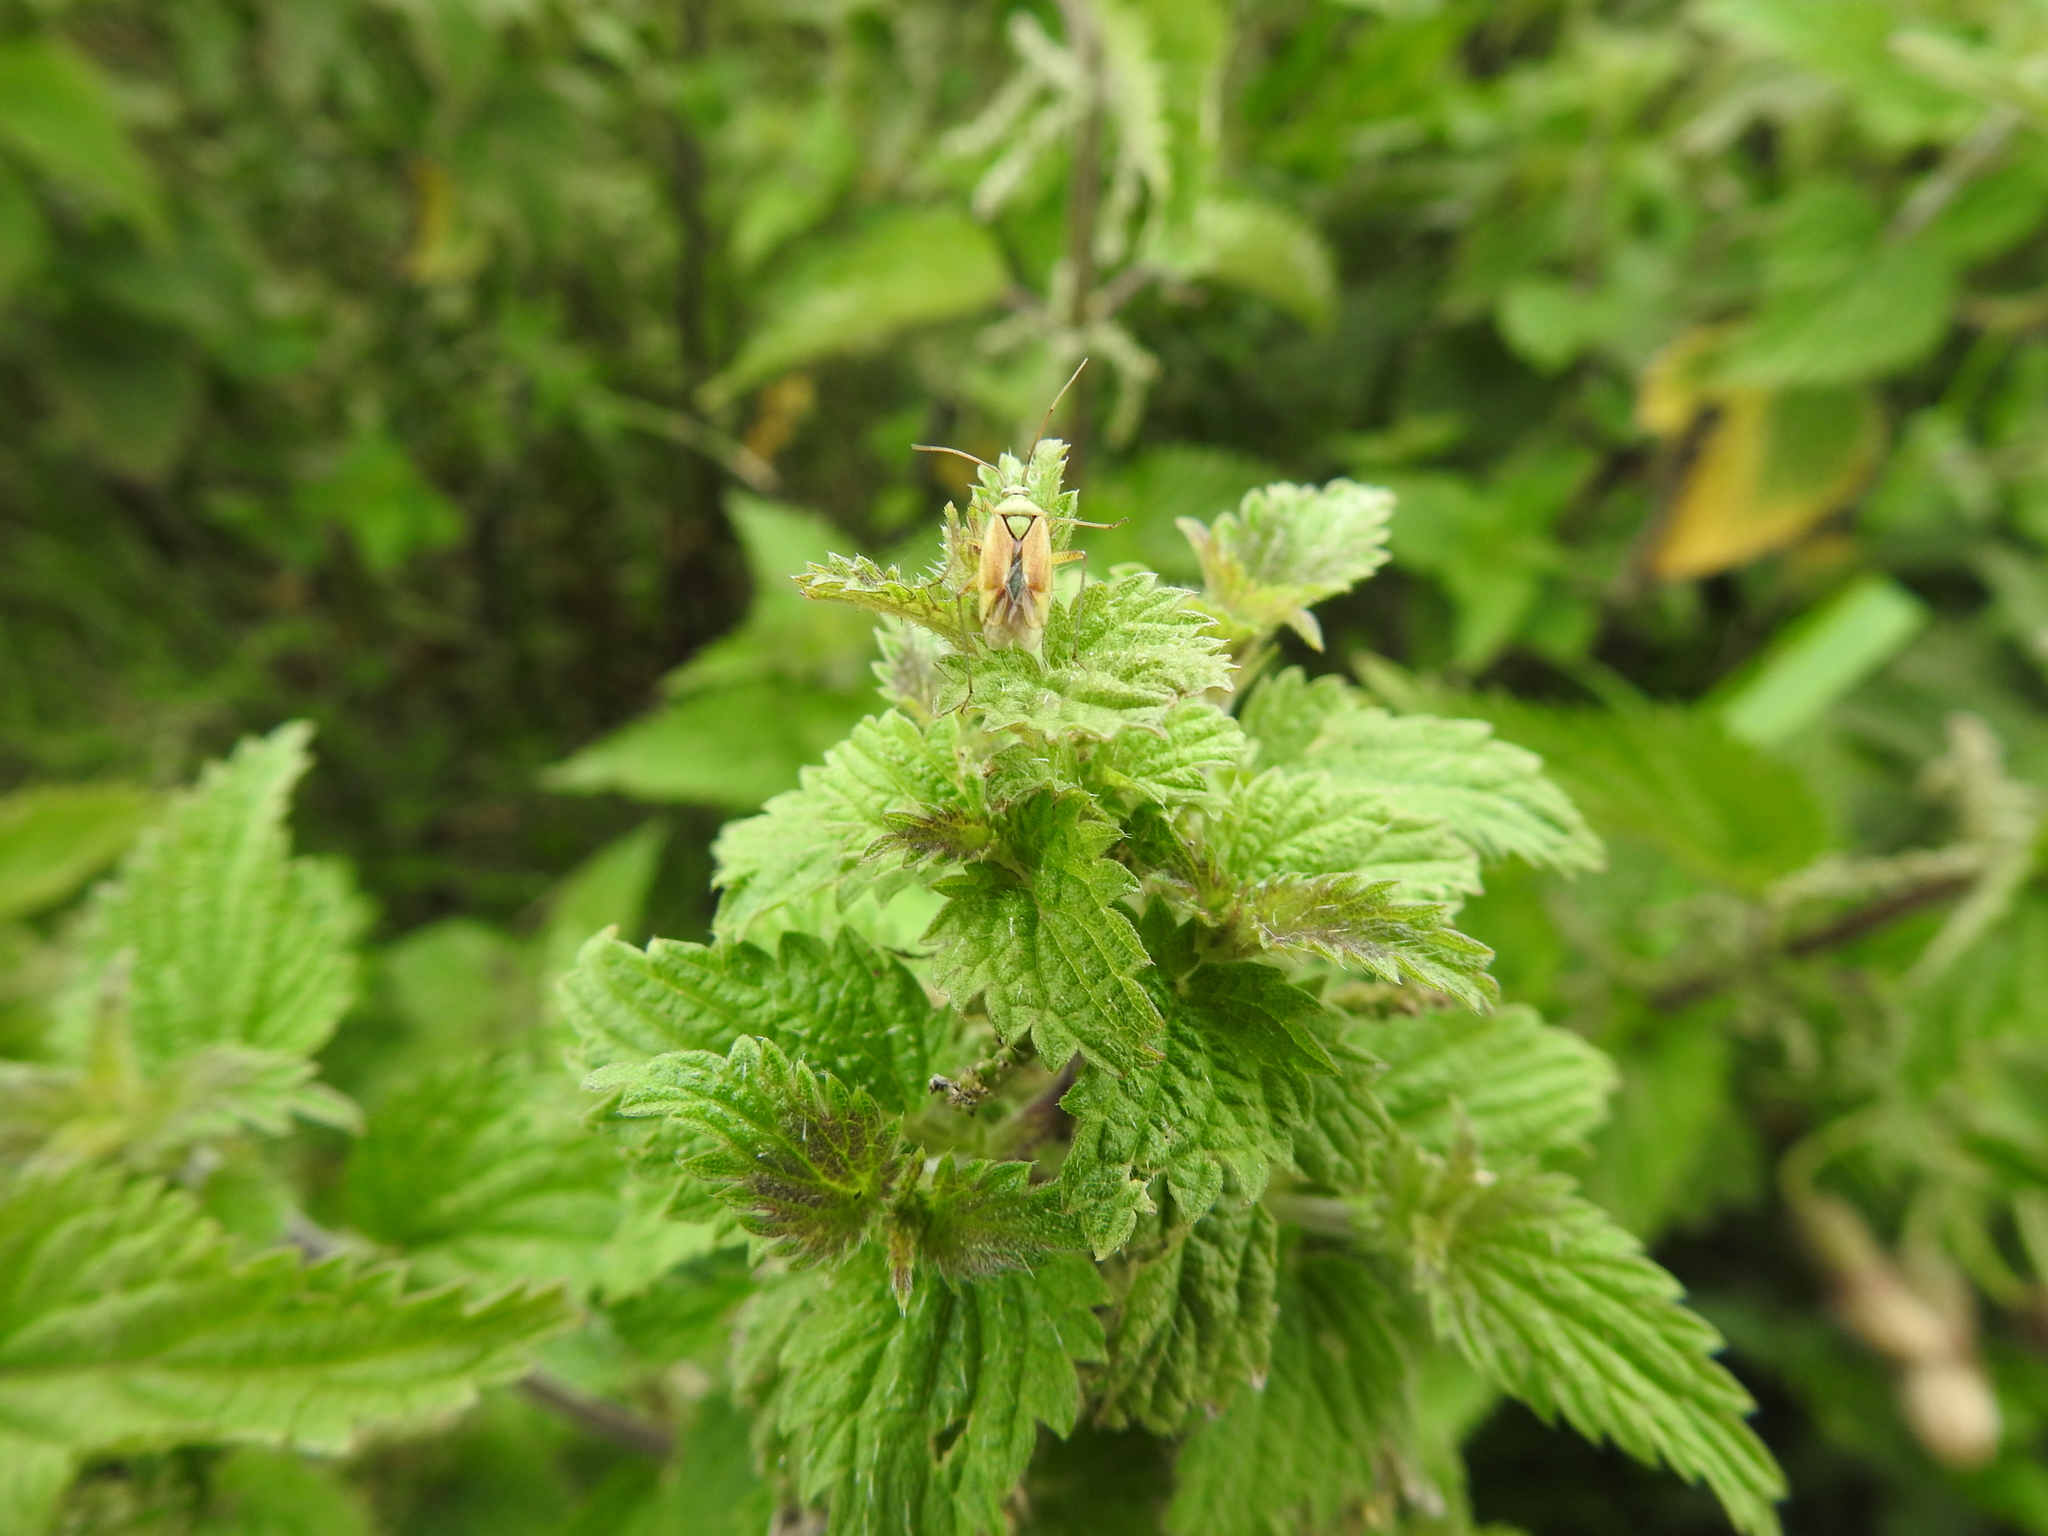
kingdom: Animalia
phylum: Arthropoda
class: Insecta
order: Hemiptera
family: Miridae
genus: Closterotomus
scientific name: Closterotomus norvegicus
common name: Plant bug
